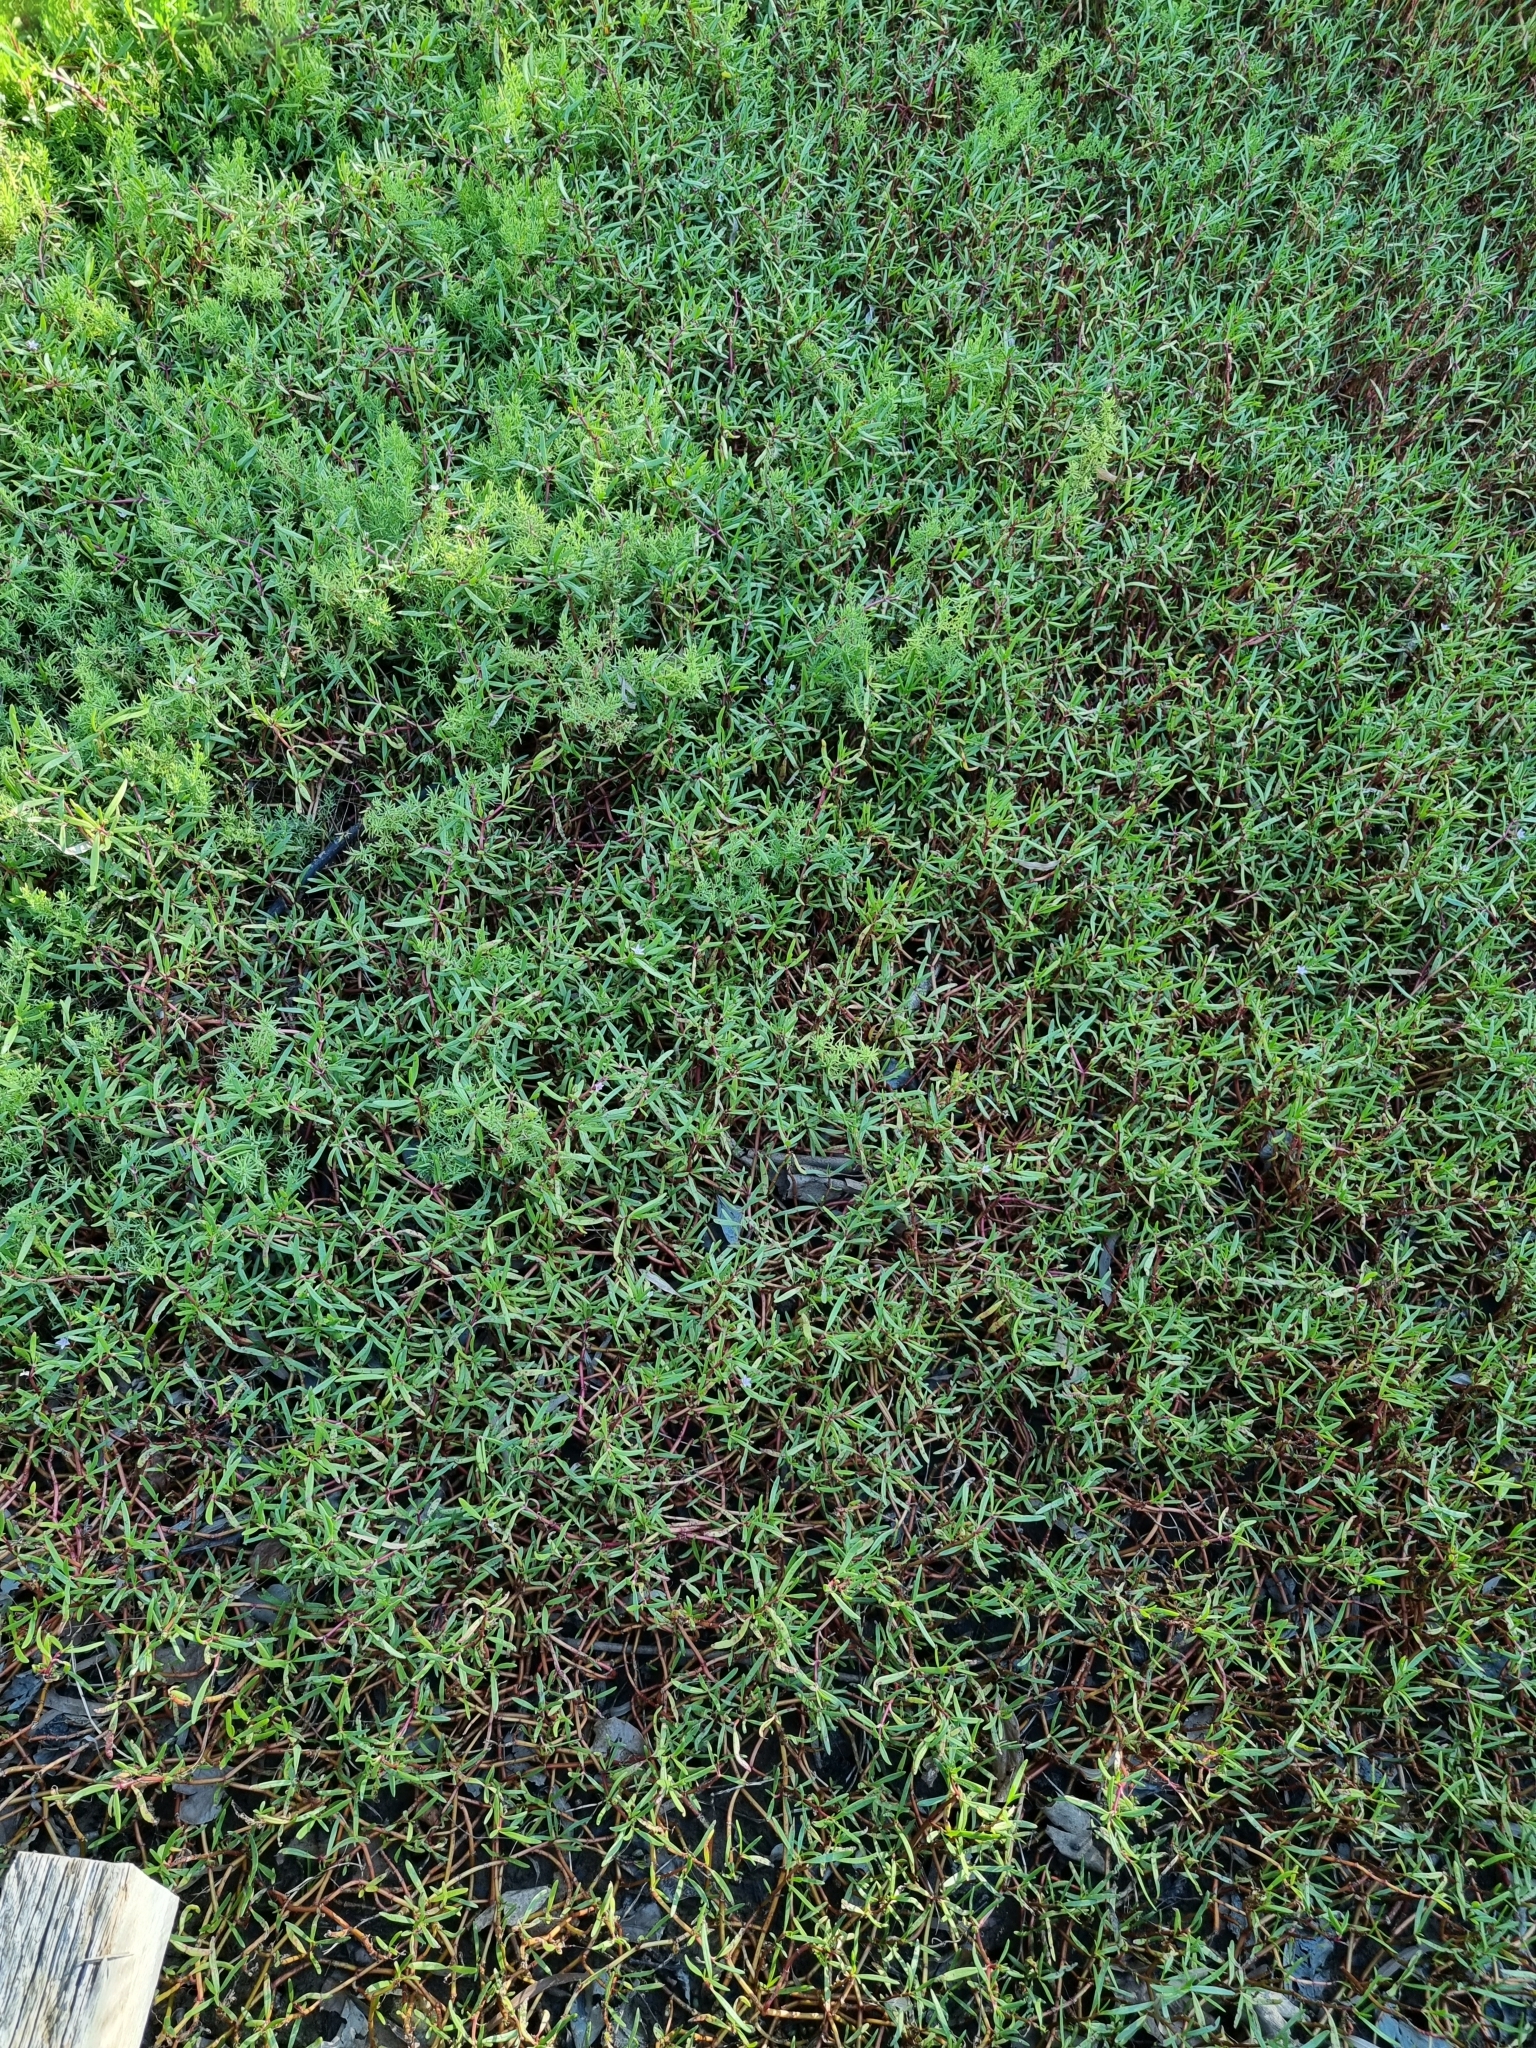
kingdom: Plantae
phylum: Tracheophyta
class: Magnoliopsida
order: Caryophyllales
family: Aizoaceae
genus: Sesuvium
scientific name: Sesuvium portulacastrum
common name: Sea-purslane
